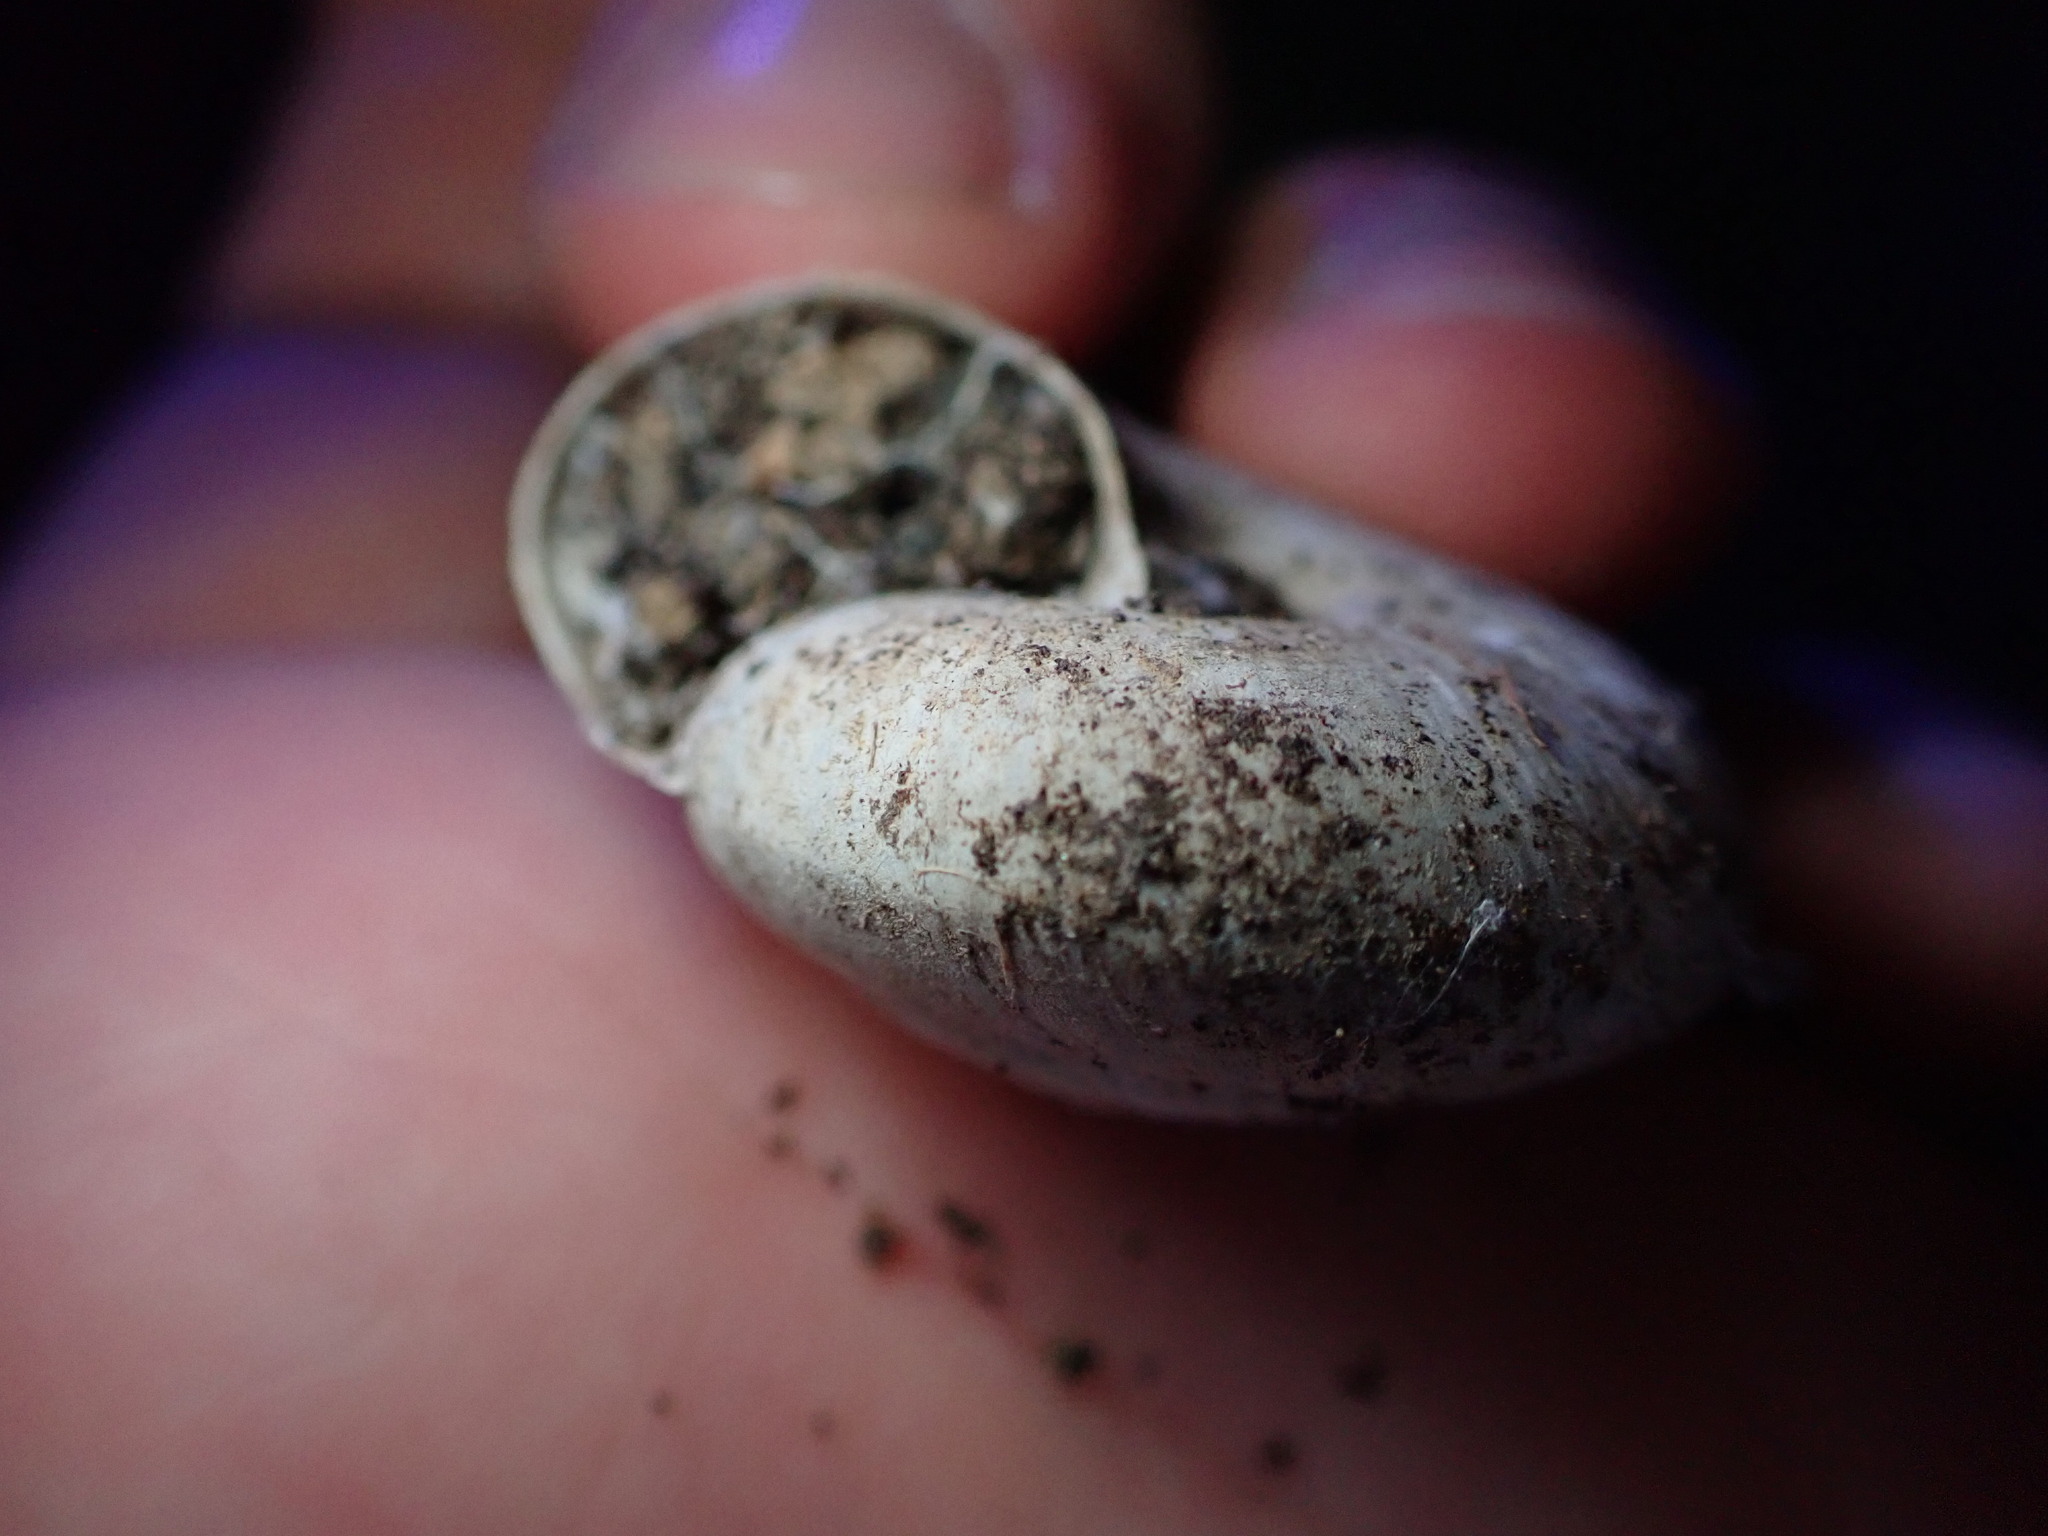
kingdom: Animalia
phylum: Mollusca
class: Gastropoda
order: Stylommatophora
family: Zonitidae
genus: Zonites
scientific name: Zonites algirus
